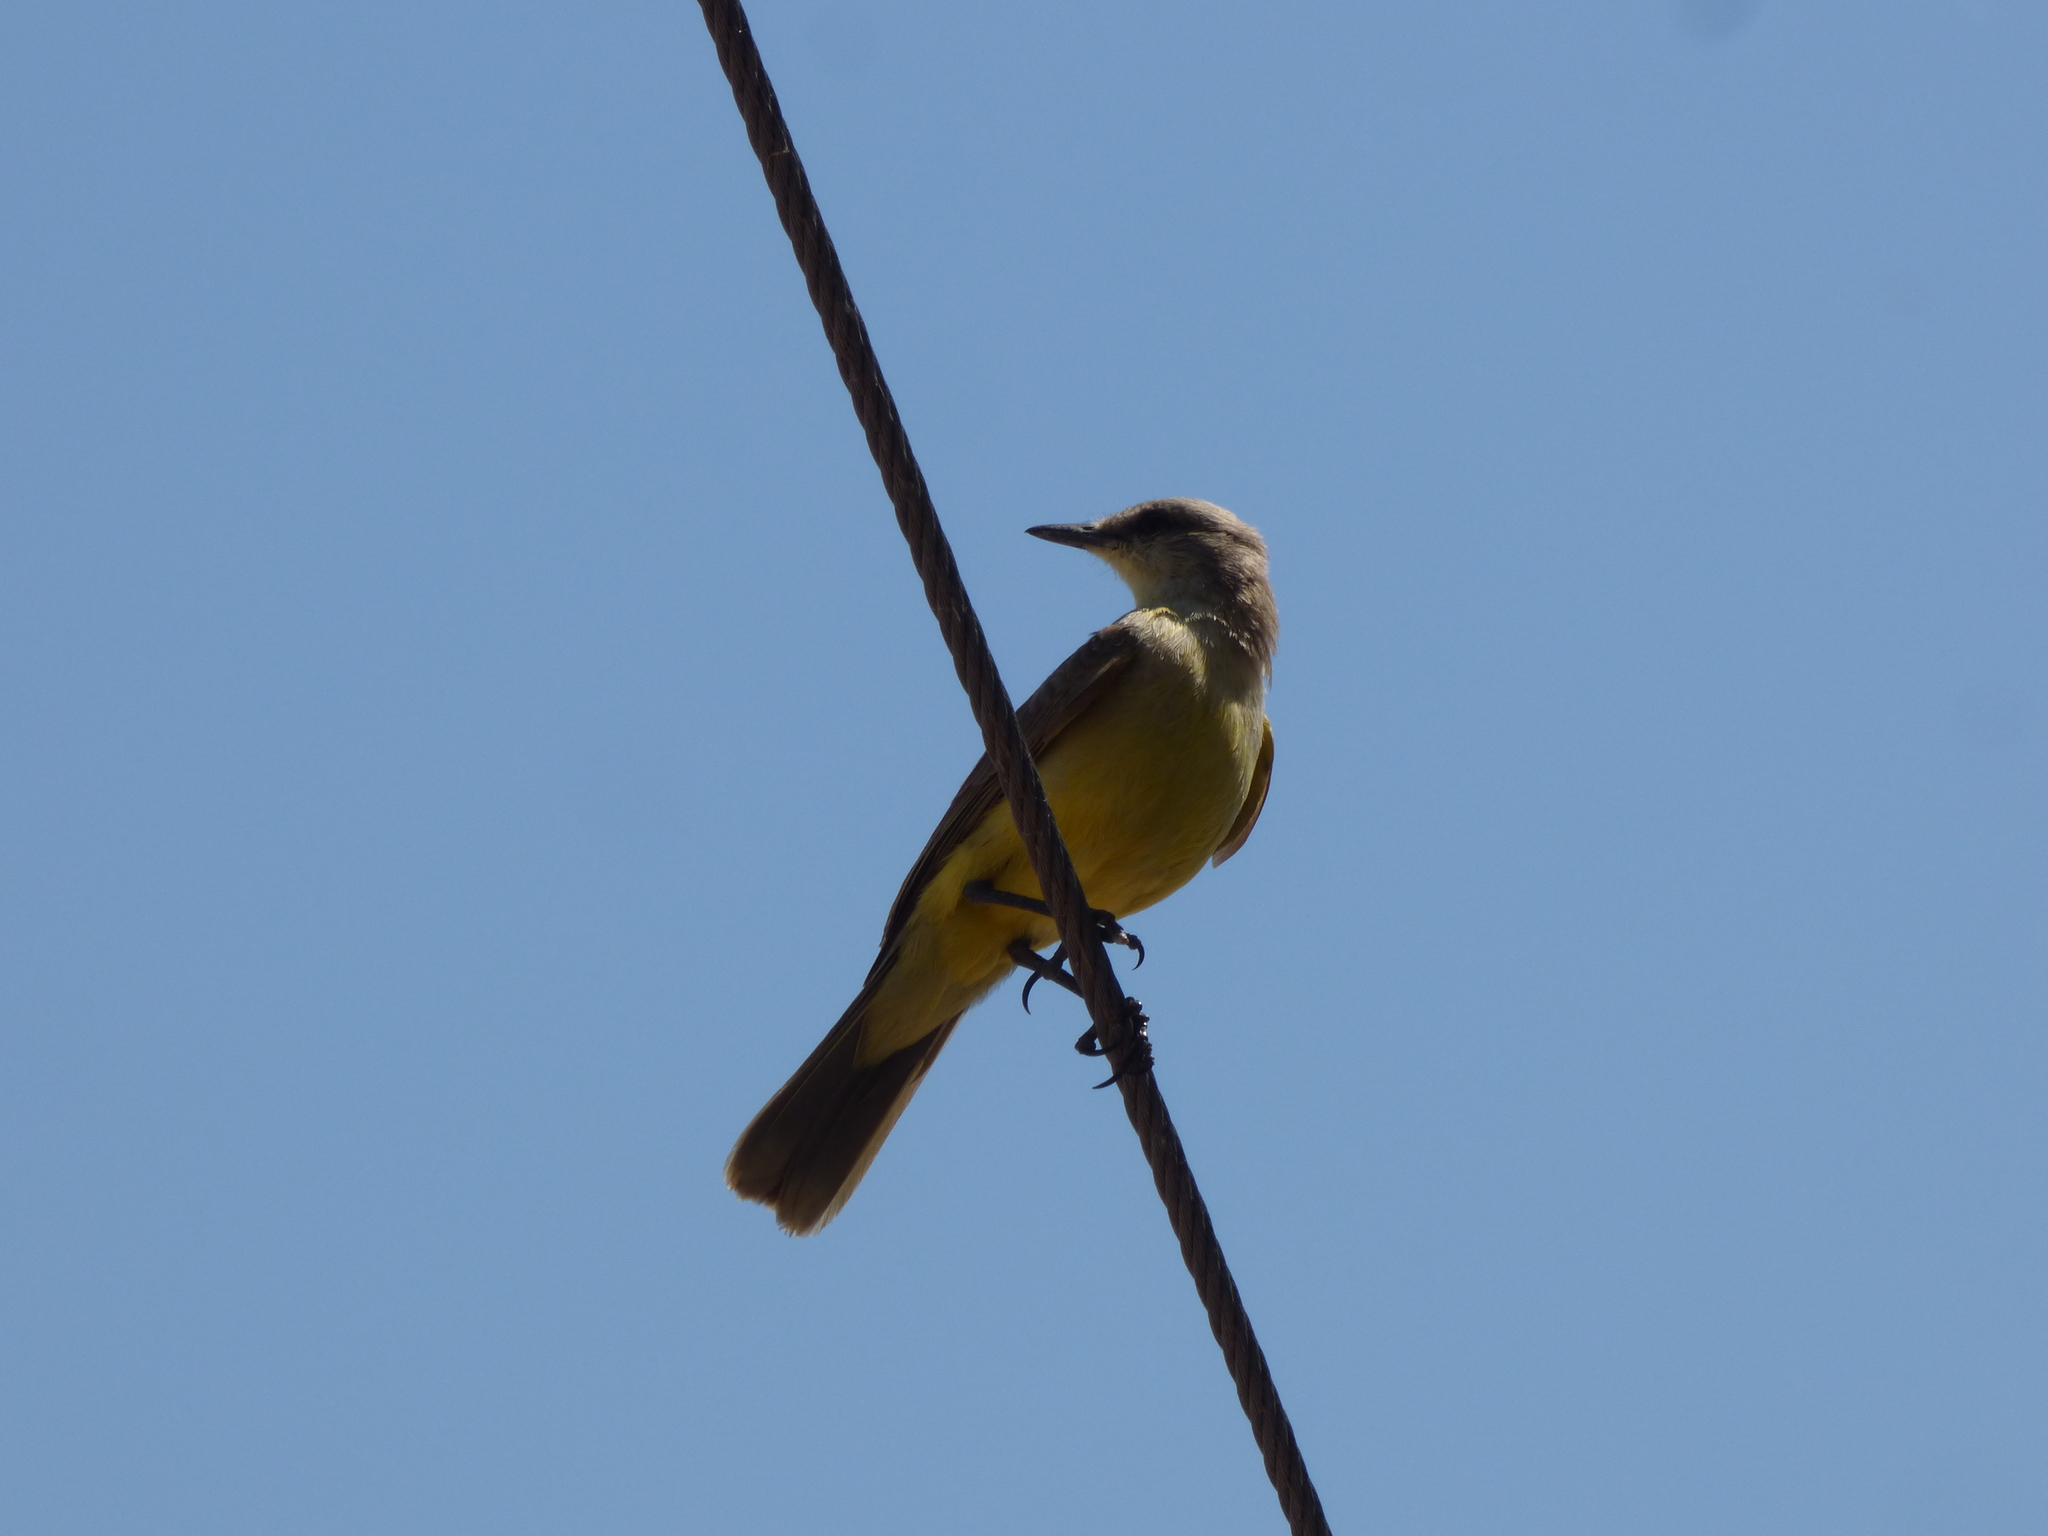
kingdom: Animalia
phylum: Chordata
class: Aves
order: Passeriformes
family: Tyrannidae
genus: Machetornis
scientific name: Machetornis rixosa
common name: Cattle tyrant
